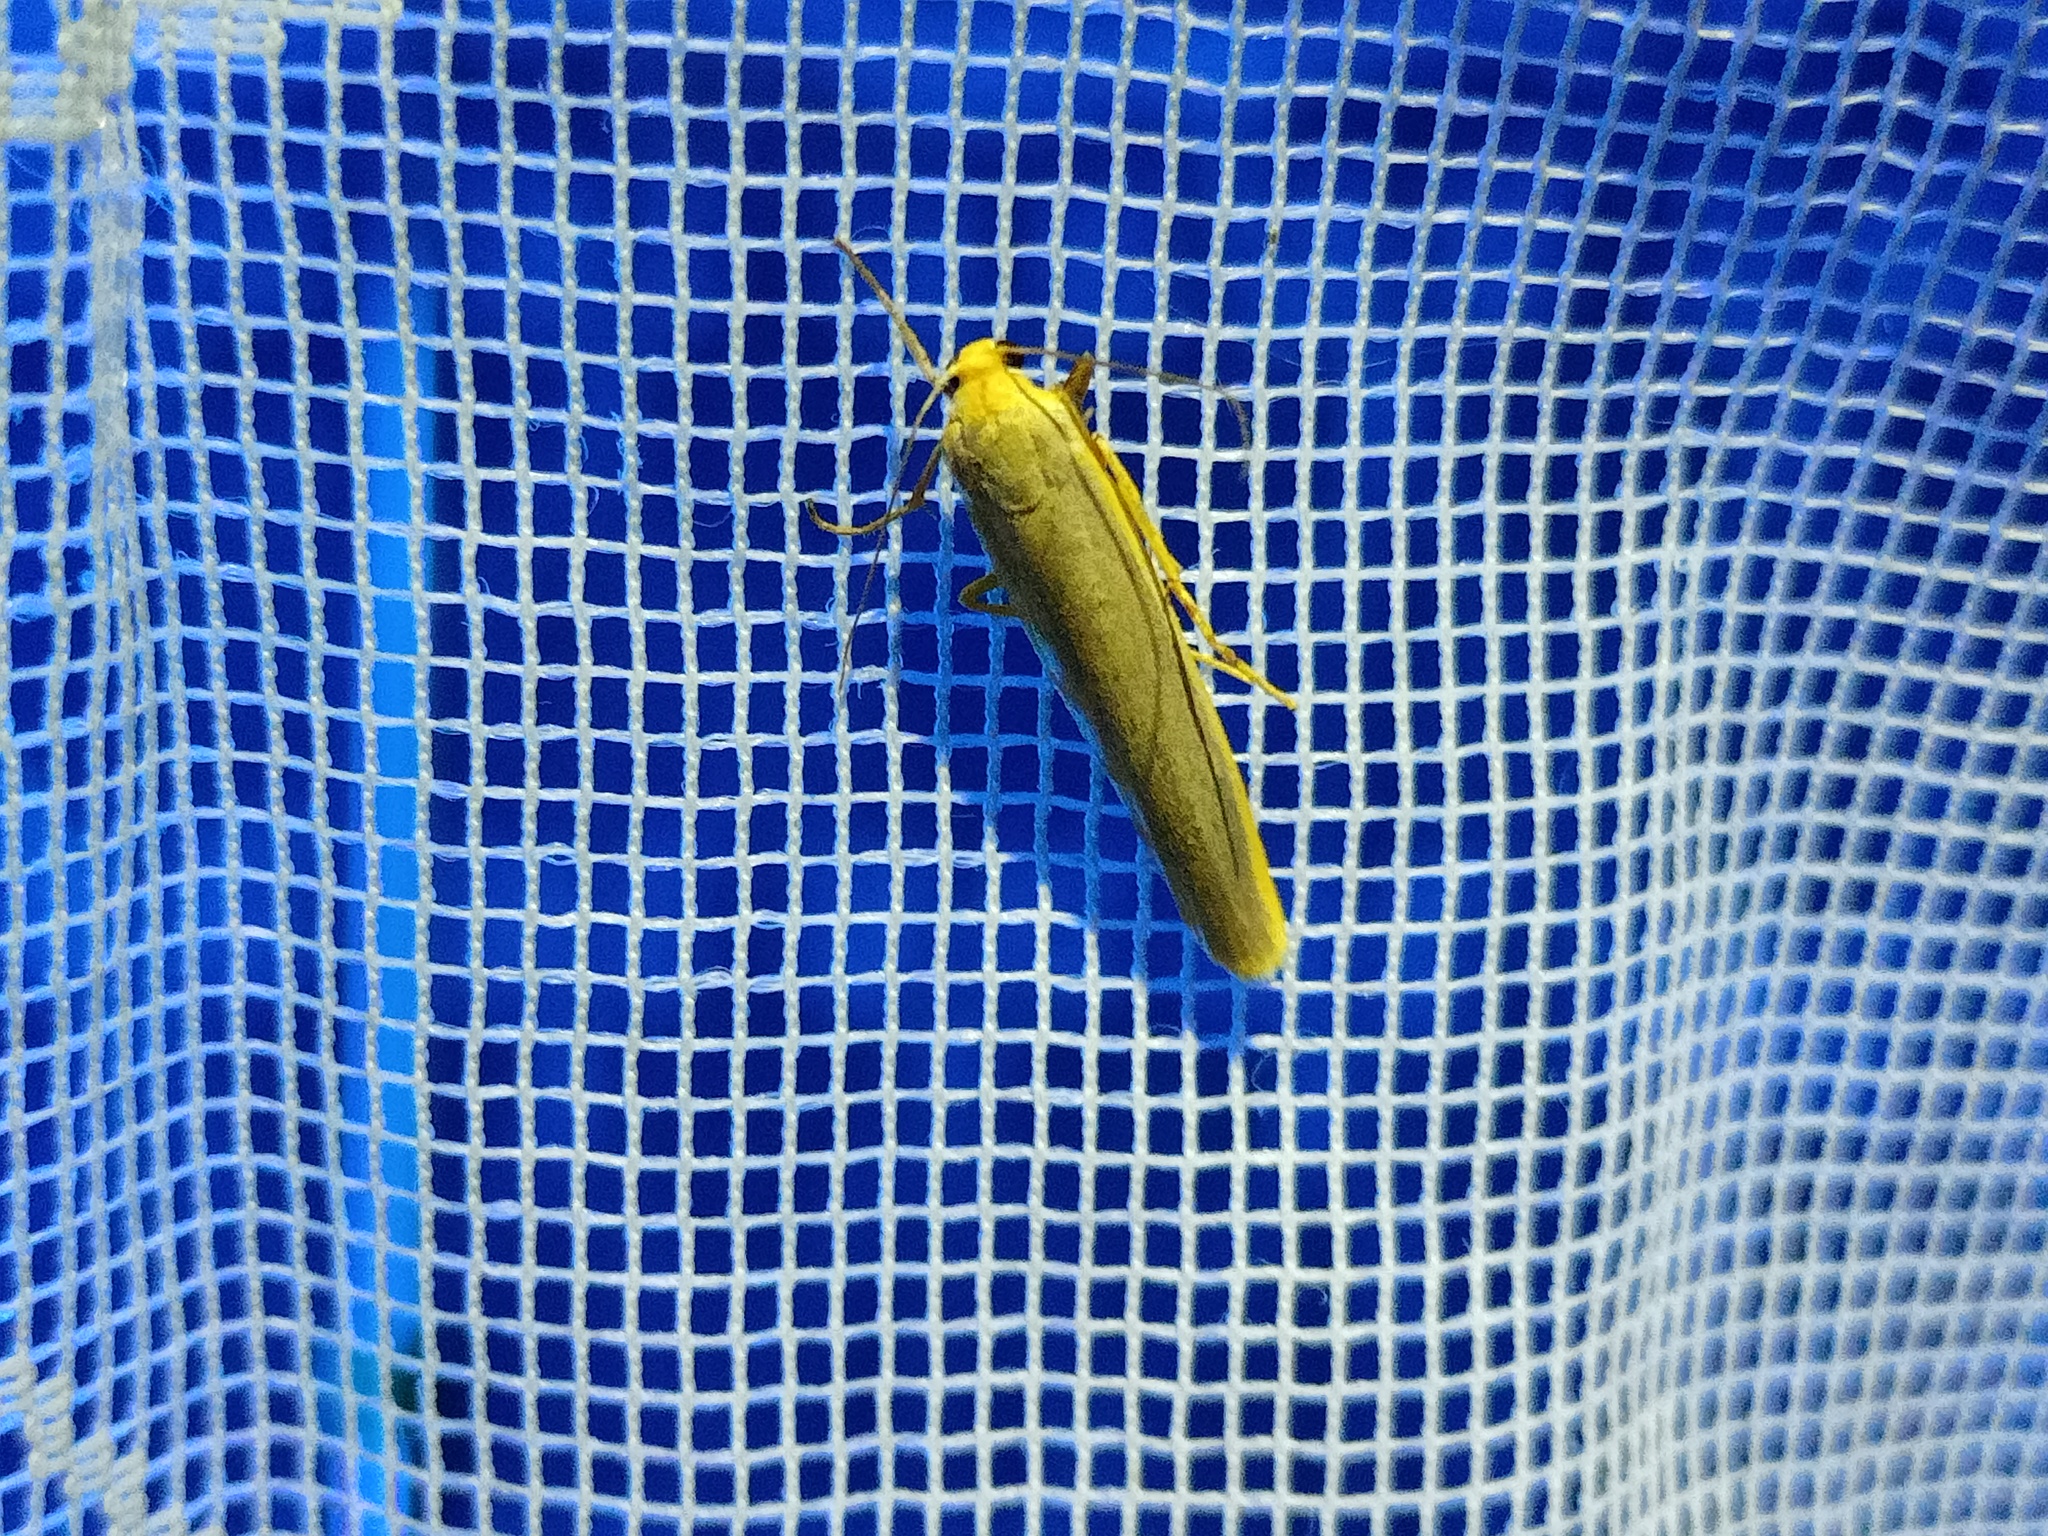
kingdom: Animalia
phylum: Arthropoda
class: Insecta
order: Lepidoptera
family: Erebidae
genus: Manulea
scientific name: Manulea complana
